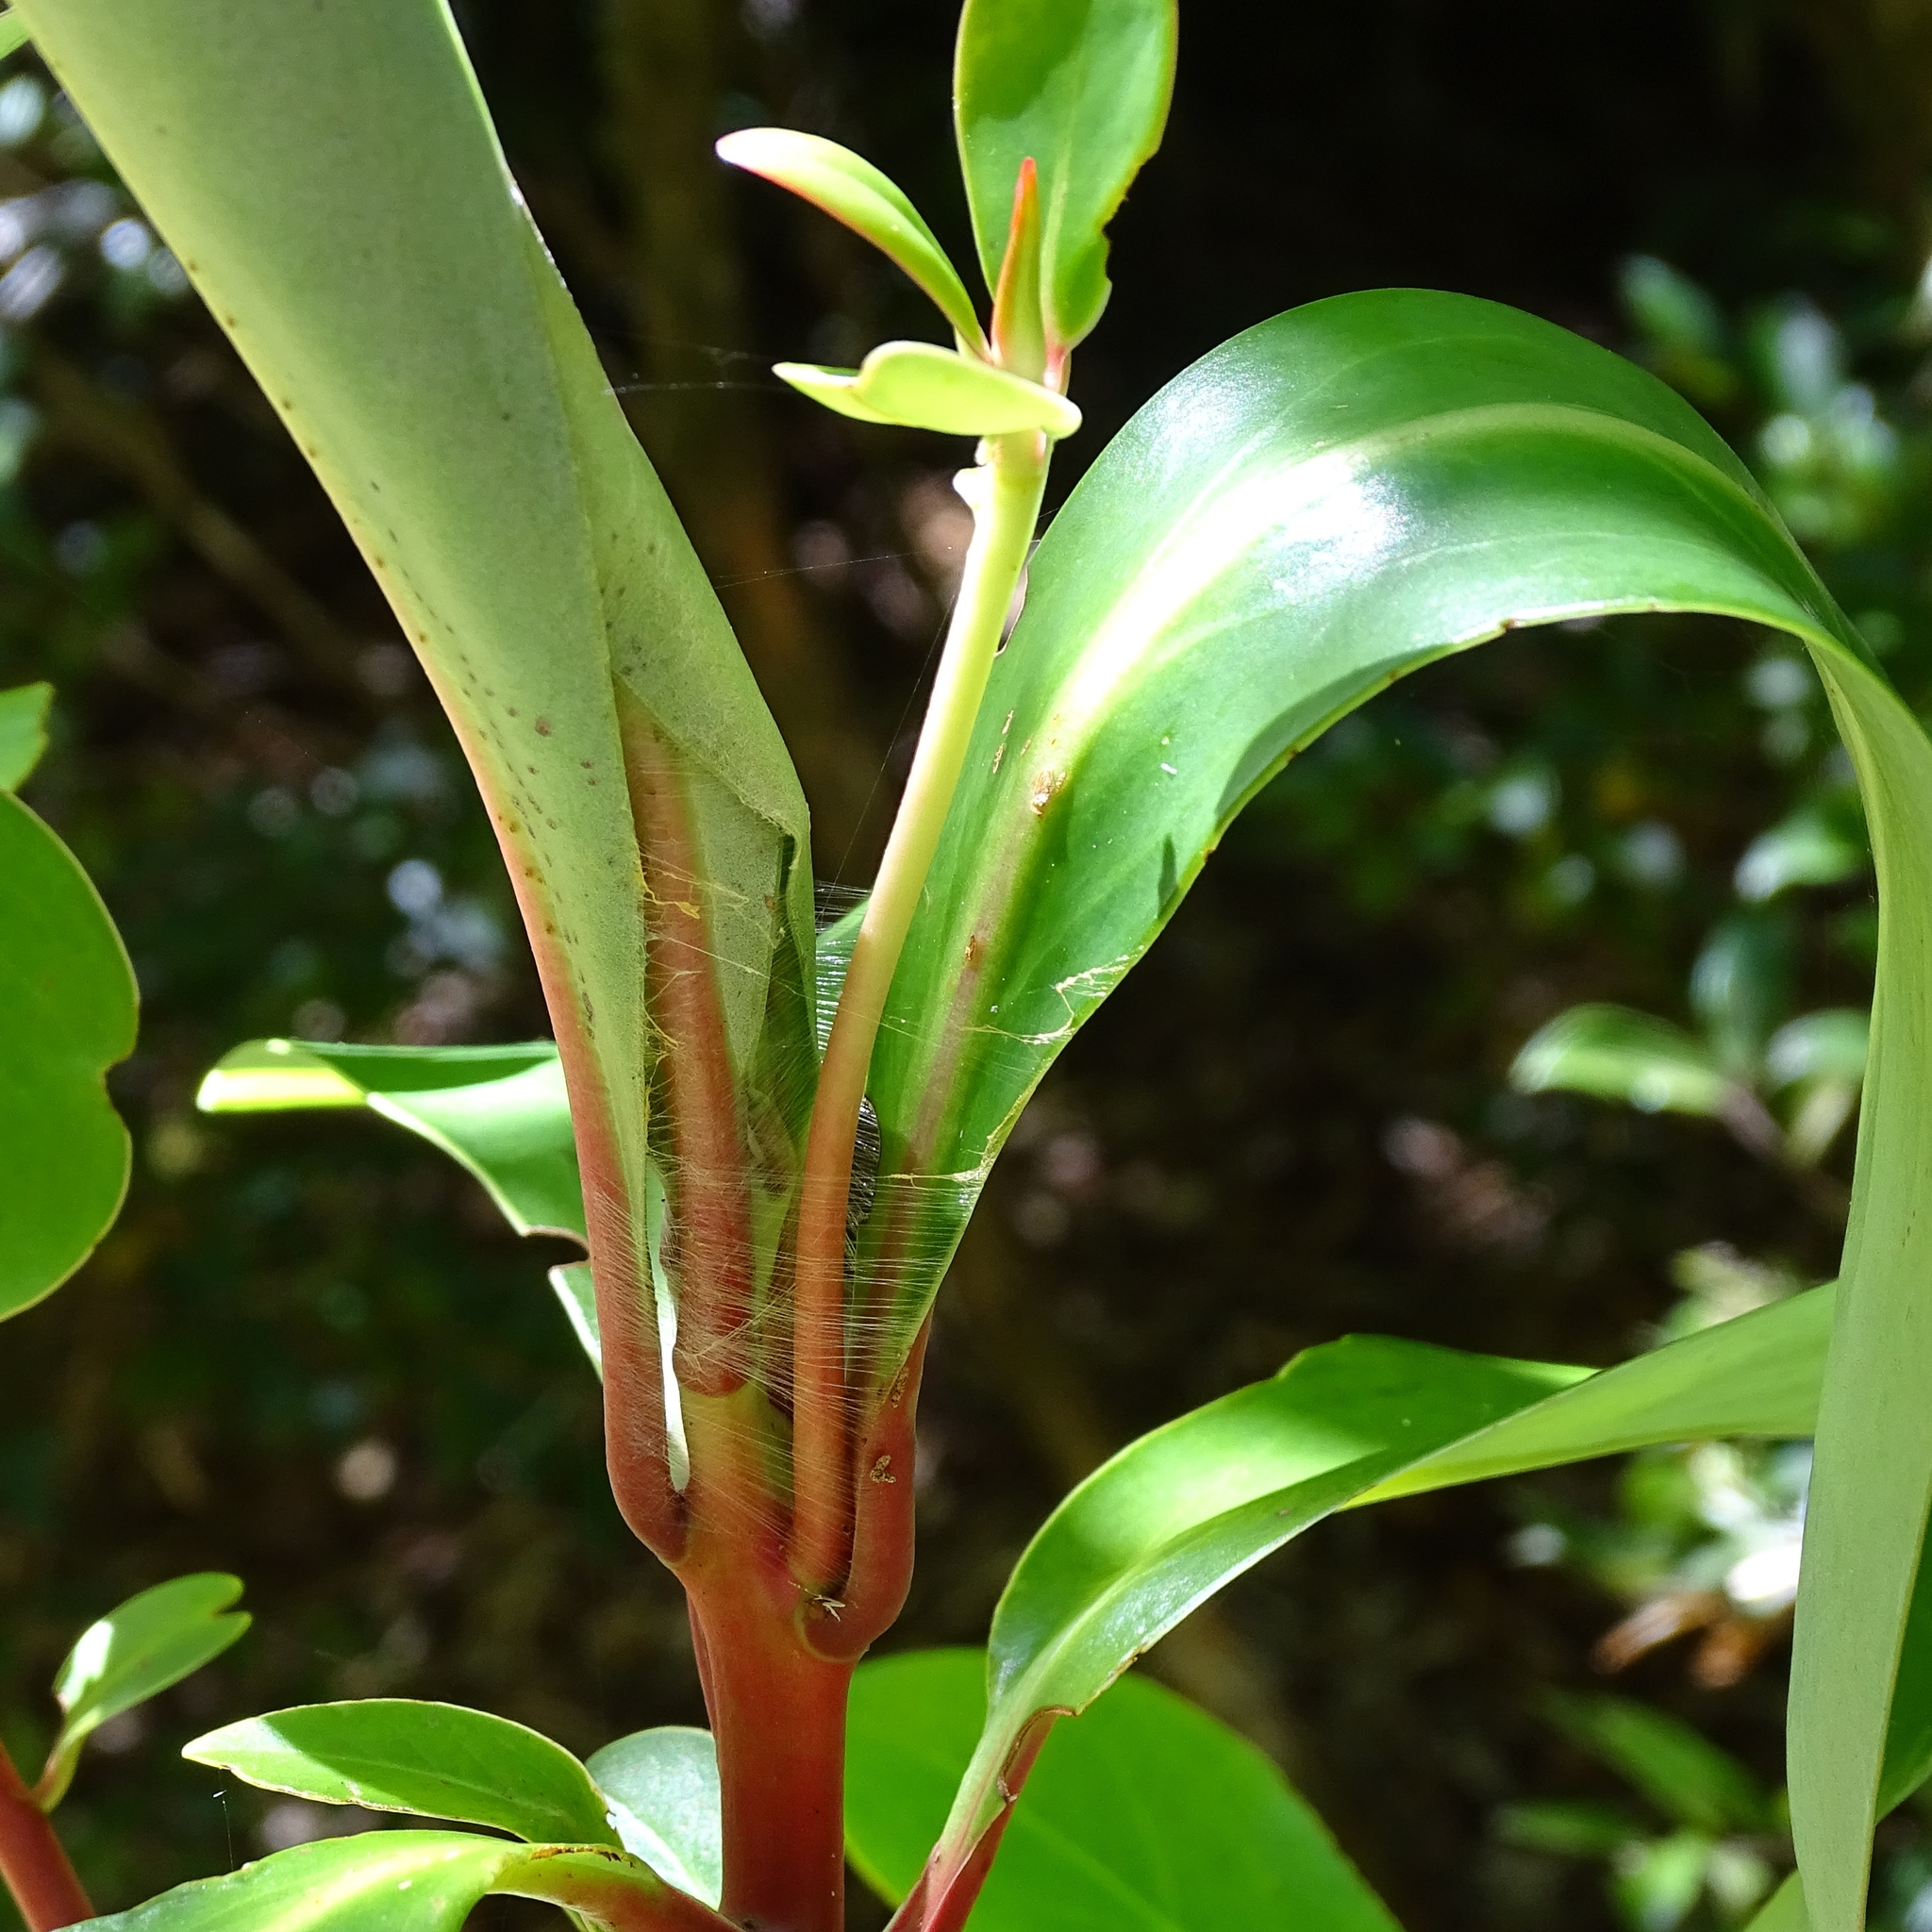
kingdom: Animalia
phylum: Arthropoda
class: Insecta
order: Lepidoptera
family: Yponomeutidae
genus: Ithutomus
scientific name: Ithutomus formosus
